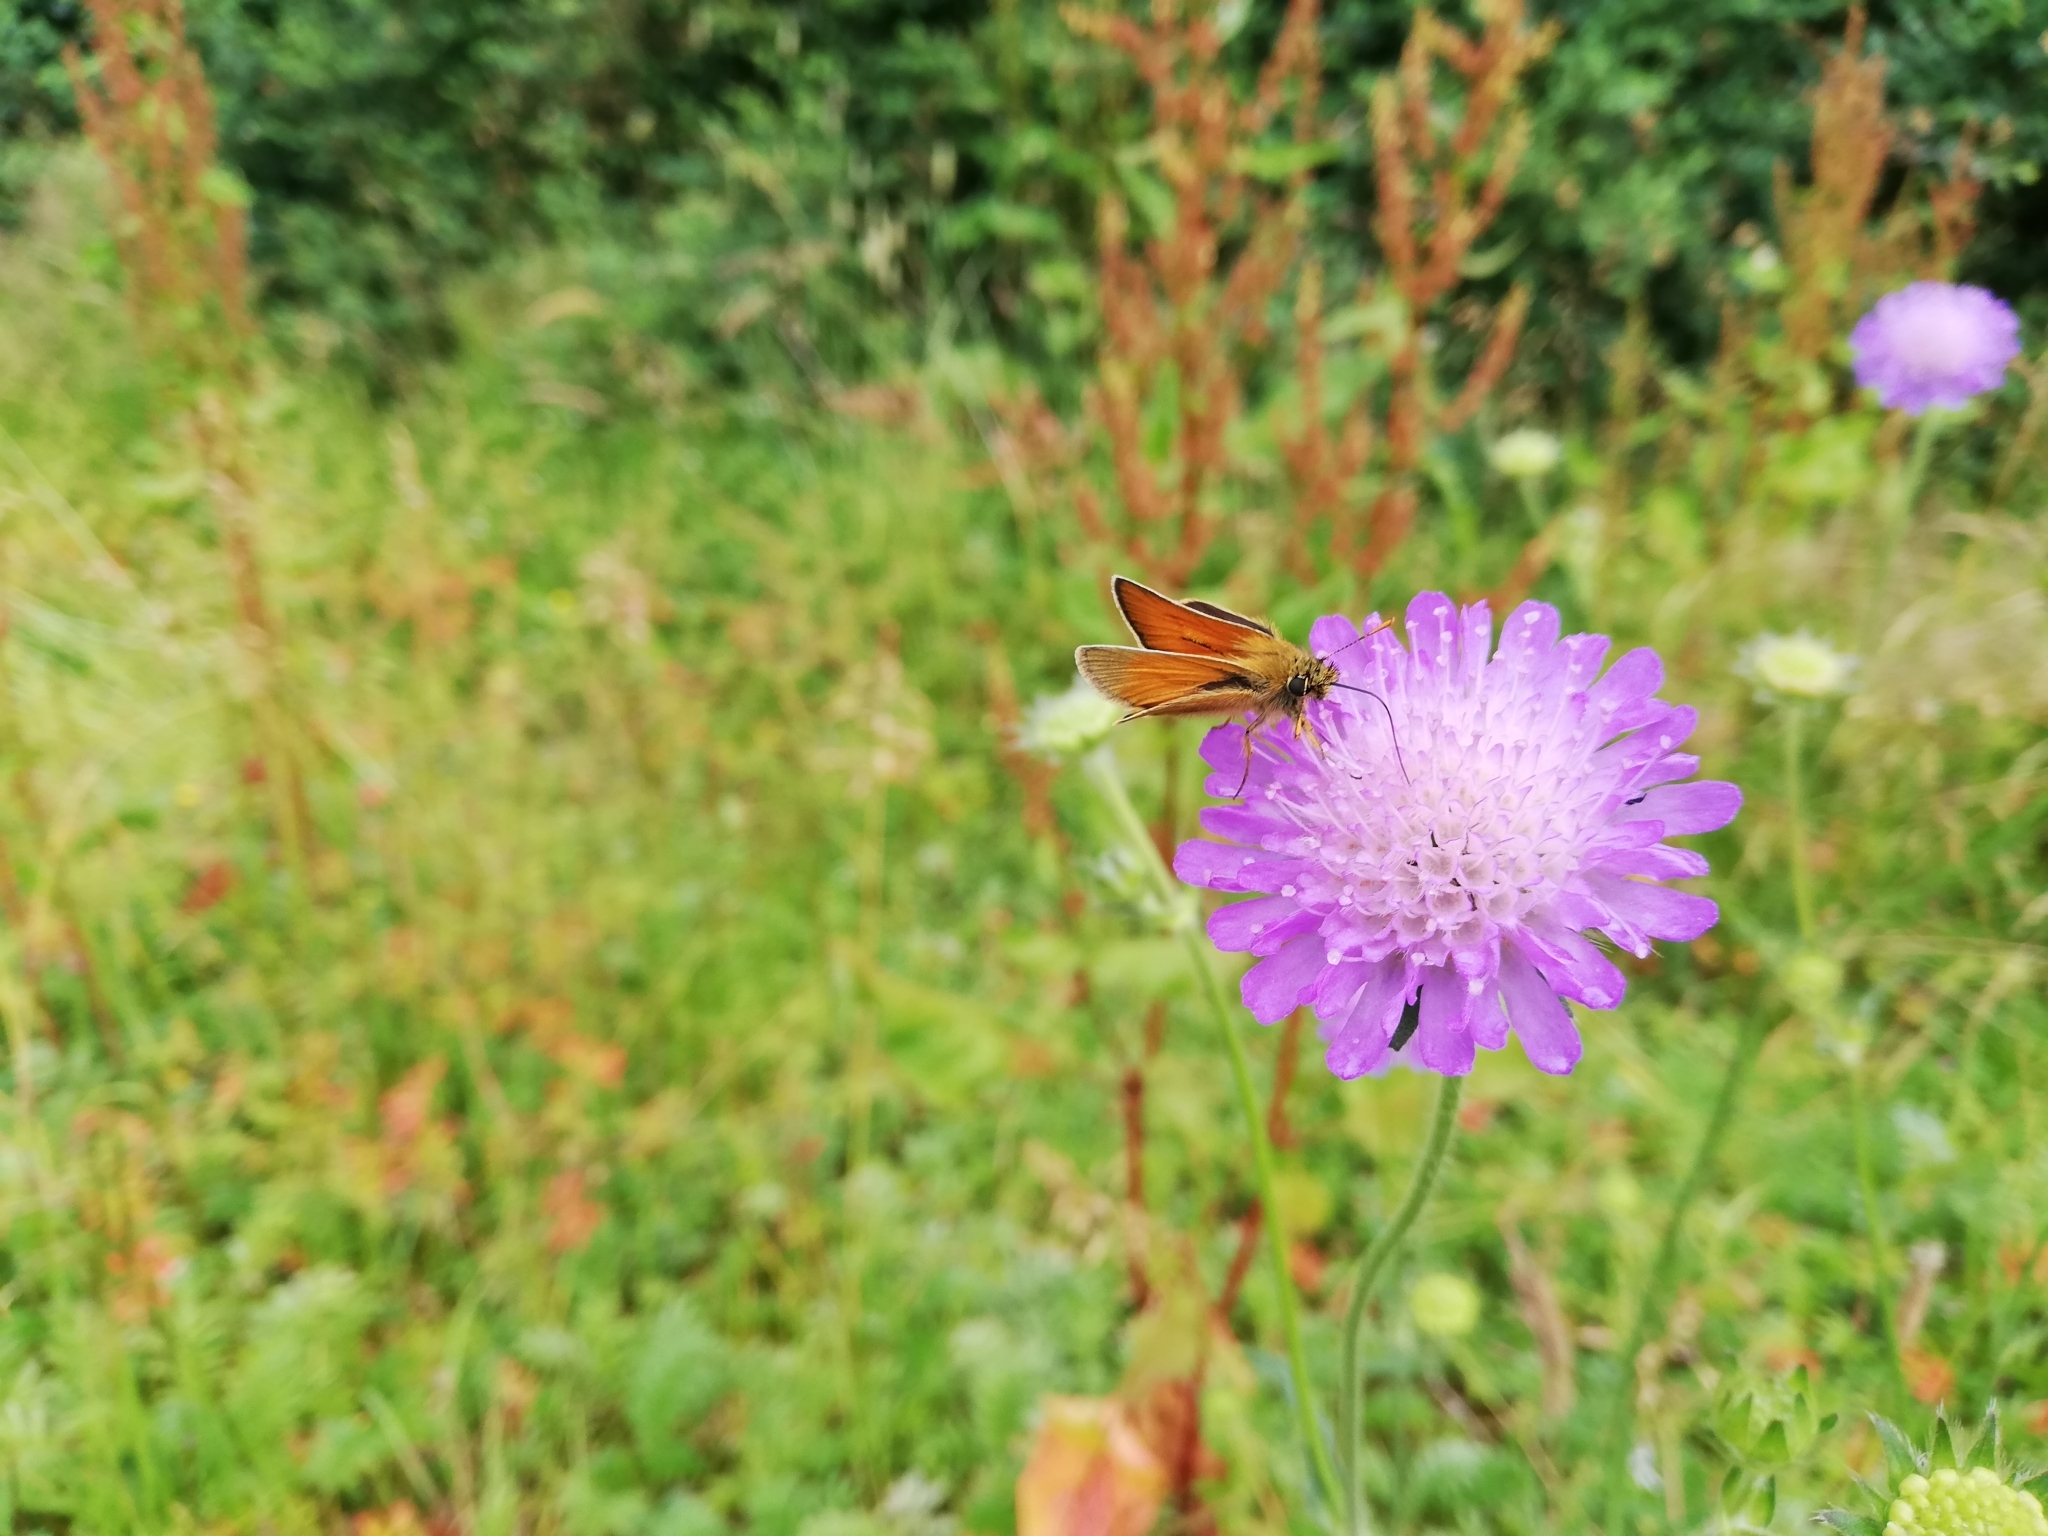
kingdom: Animalia
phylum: Arthropoda
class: Insecta
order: Lepidoptera
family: Hesperiidae
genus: Thymelicus
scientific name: Thymelicus sylvestris
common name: Small skipper
